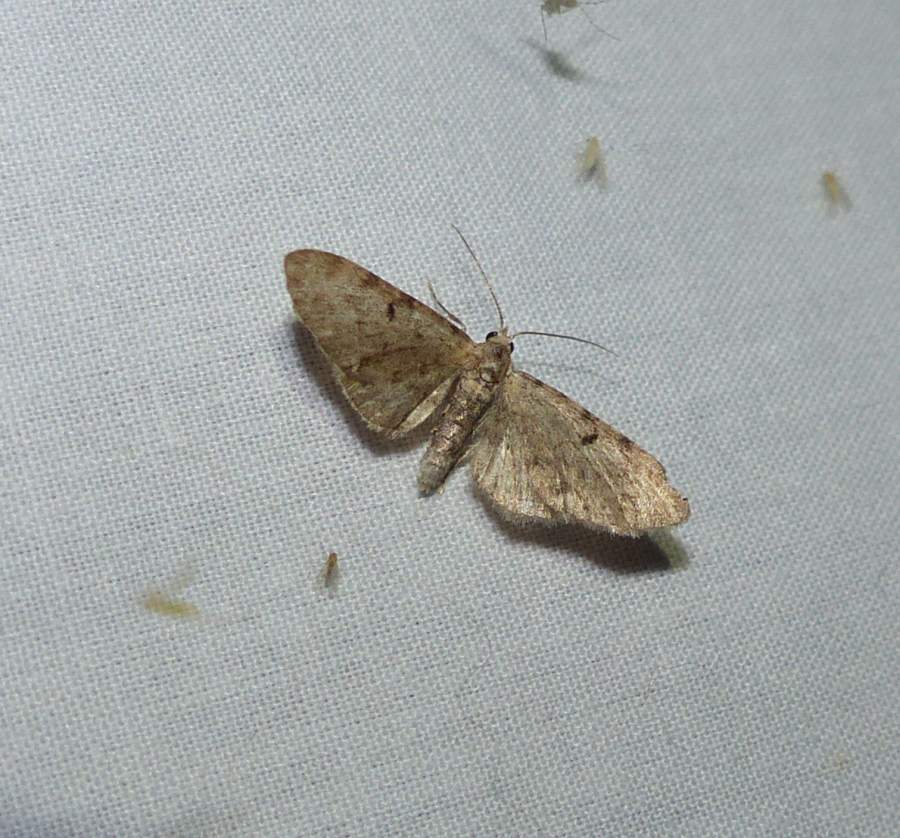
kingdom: Animalia
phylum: Arthropoda
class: Insecta
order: Lepidoptera
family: Geometridae
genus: Eupithecia
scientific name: Eupithecia miserulata
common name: Common eupithecia
